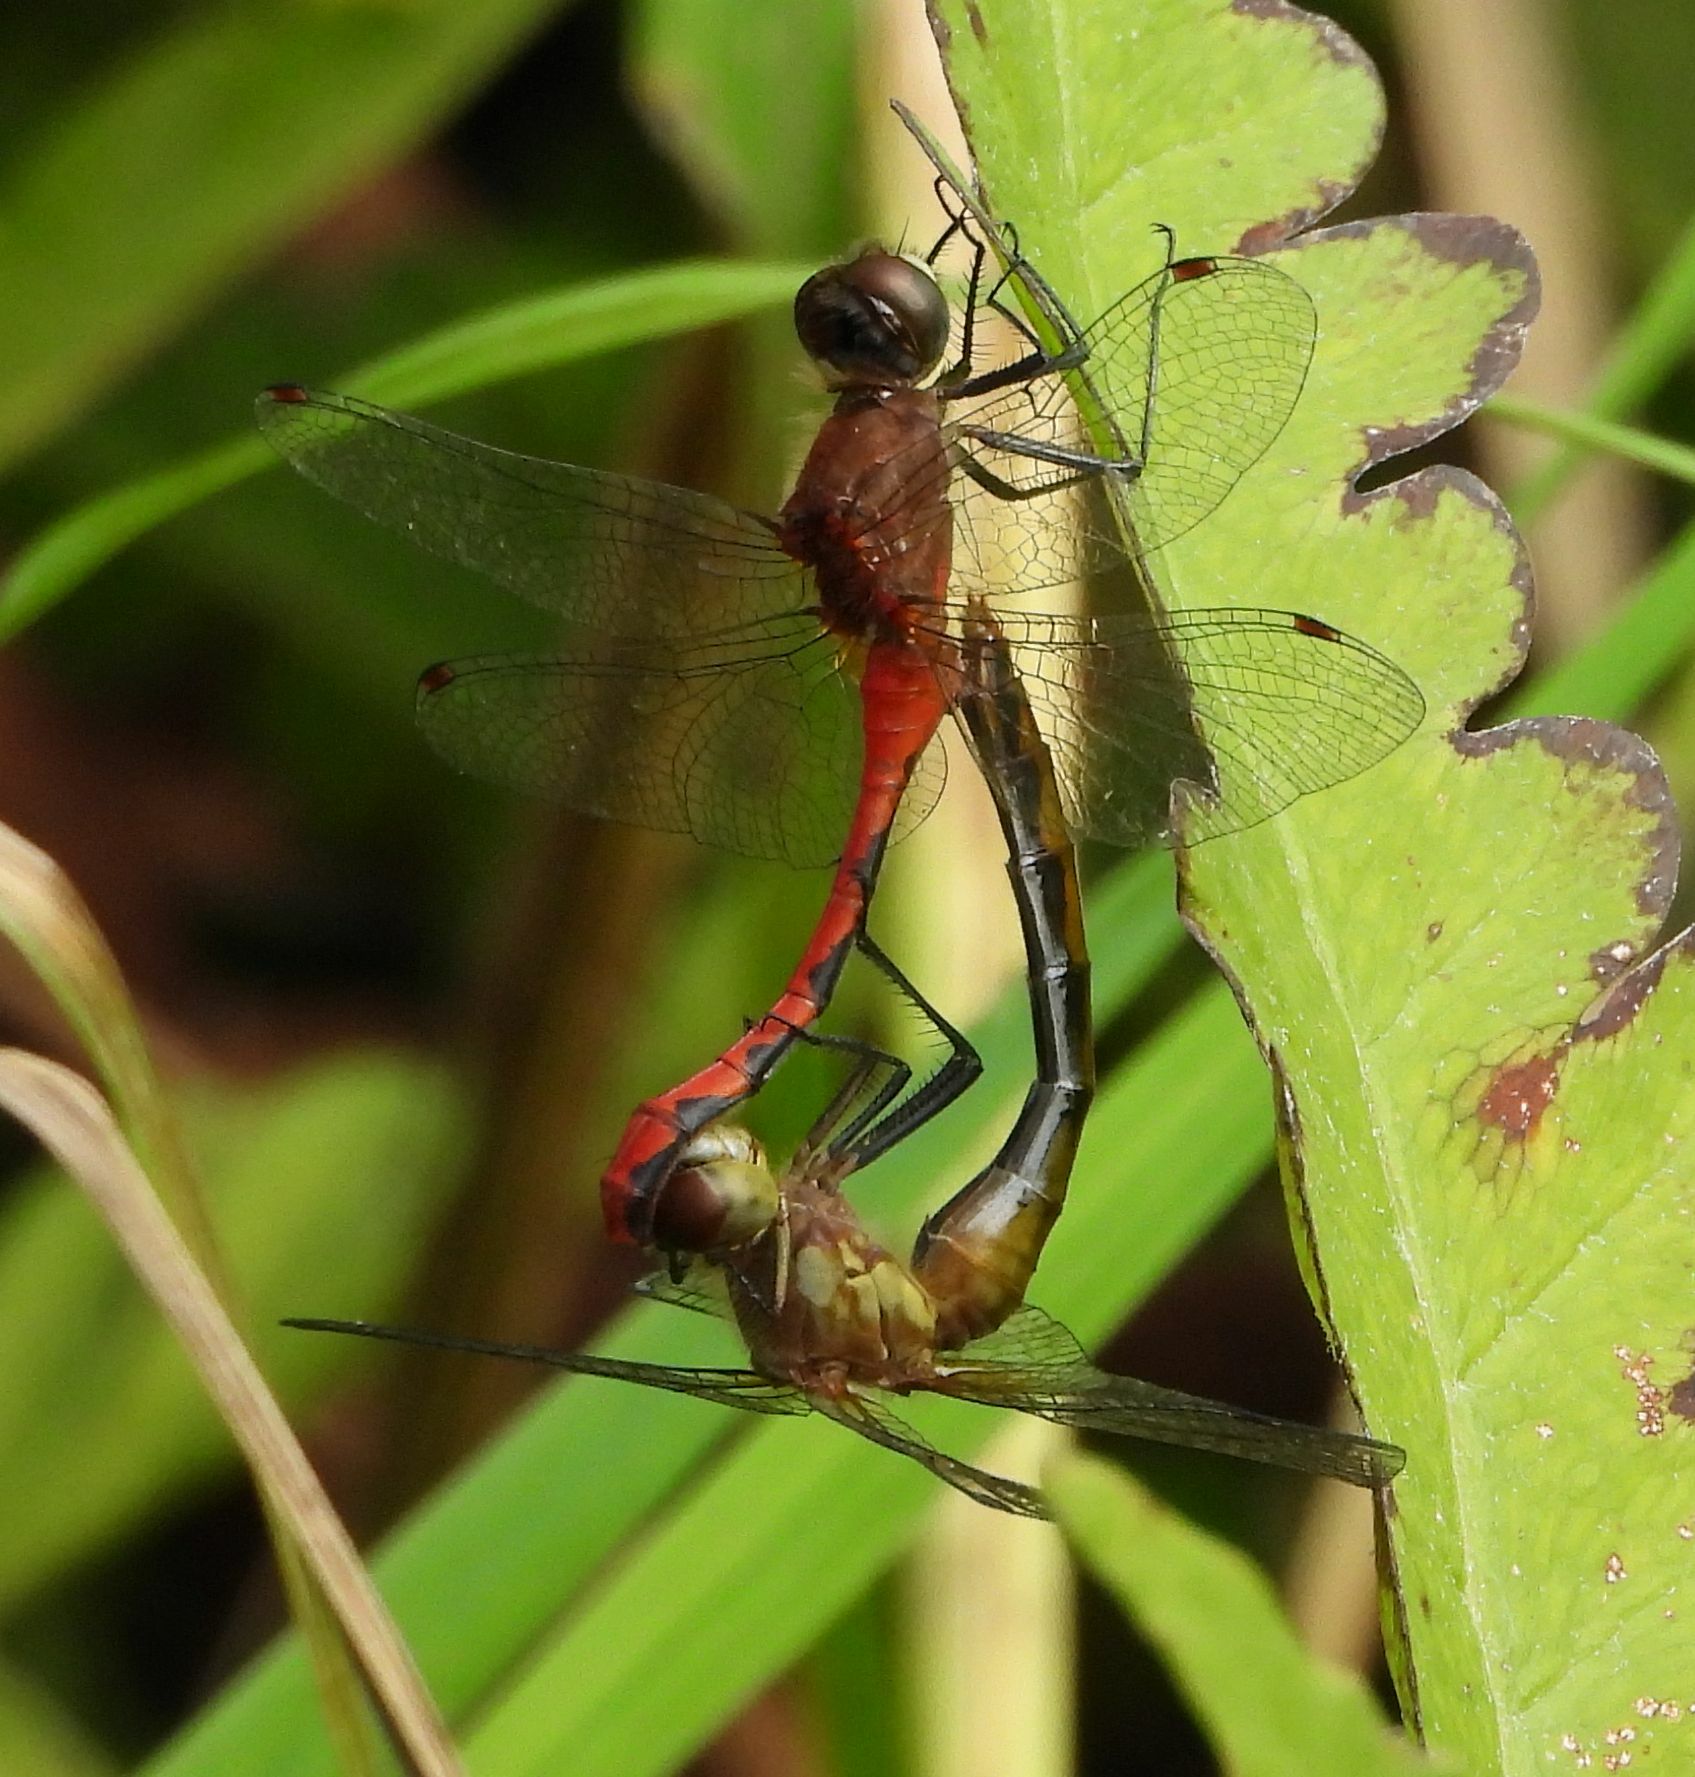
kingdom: Animalia
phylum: Arthropoda
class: Insecta
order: Odonata
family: Libellulidae
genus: Sympetrum
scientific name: Sympetrum obtrusum
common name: White-faced meadowhawk
